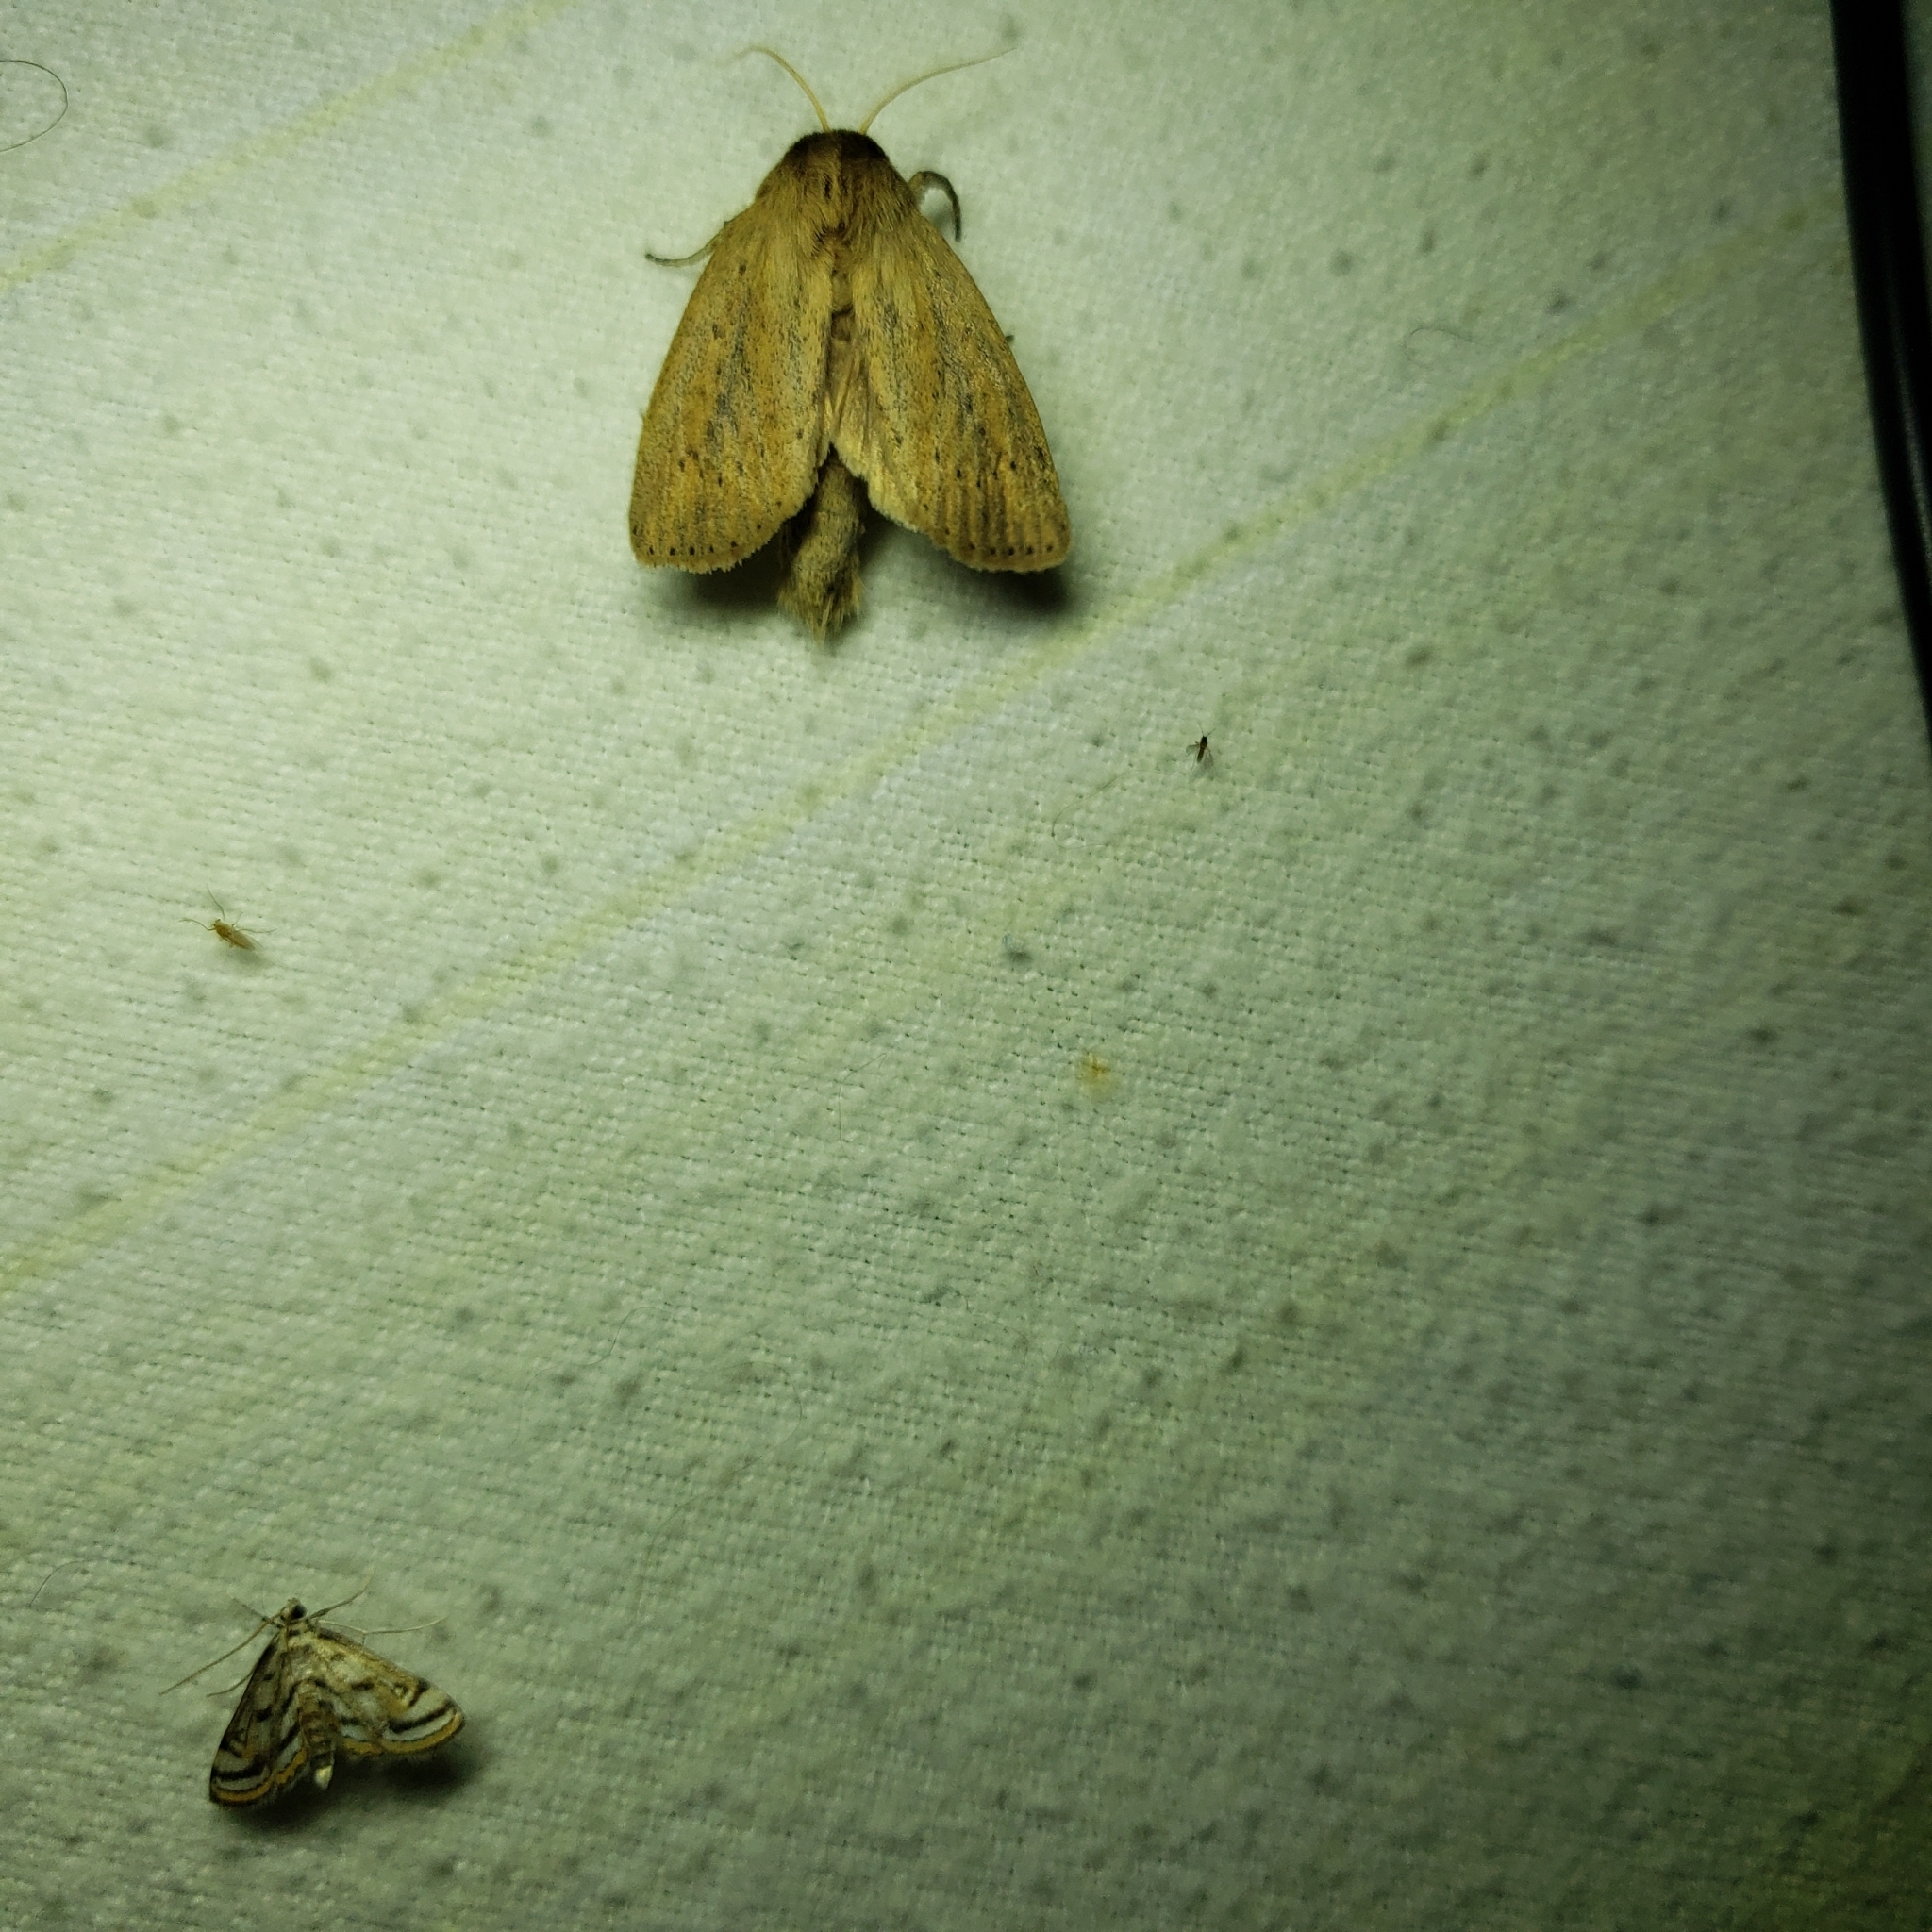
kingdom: Animalia
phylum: Arthropoda
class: Insecta
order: Lepidoptera
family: Noctuidae
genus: Globia
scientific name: Globia oblonga
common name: Oblong sedge borer moth
